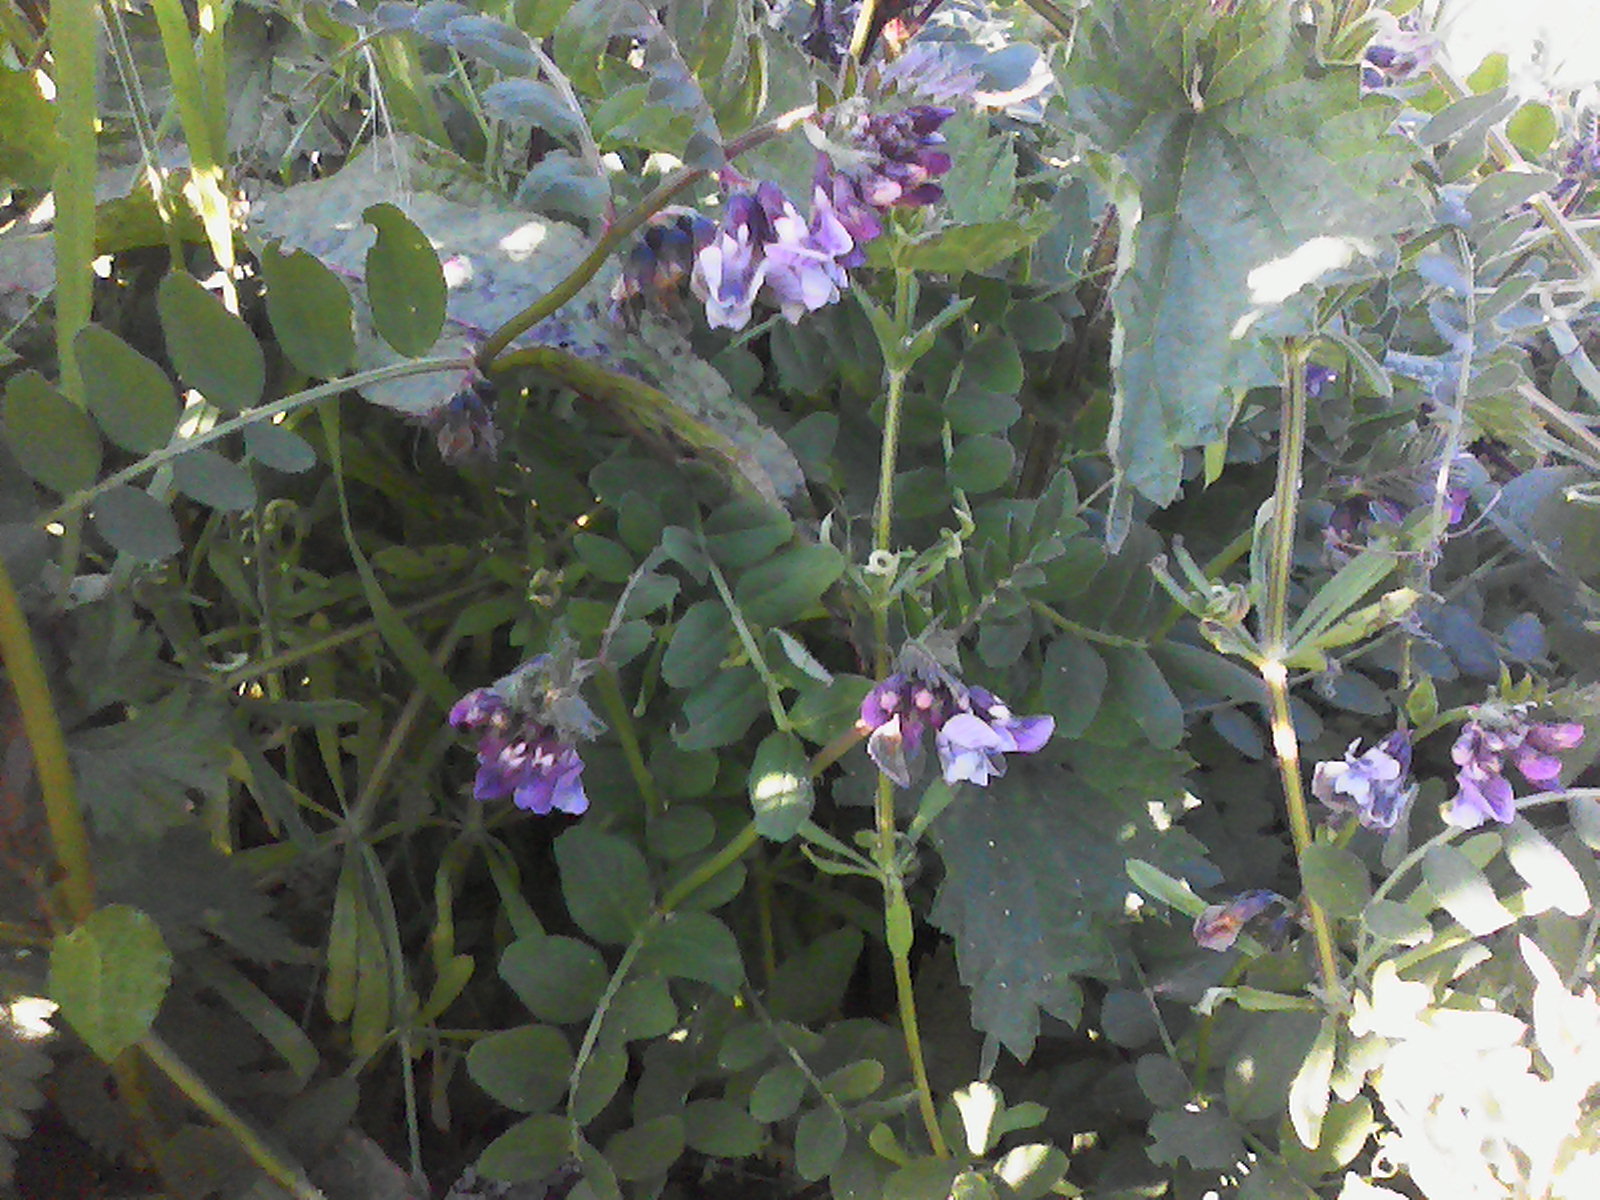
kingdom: Plantae
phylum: Tracheophyta
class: Magnoliopsida
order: Fabales
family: Fabaceae
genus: Vicia
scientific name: Vicia sepium
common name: Bush vetch
